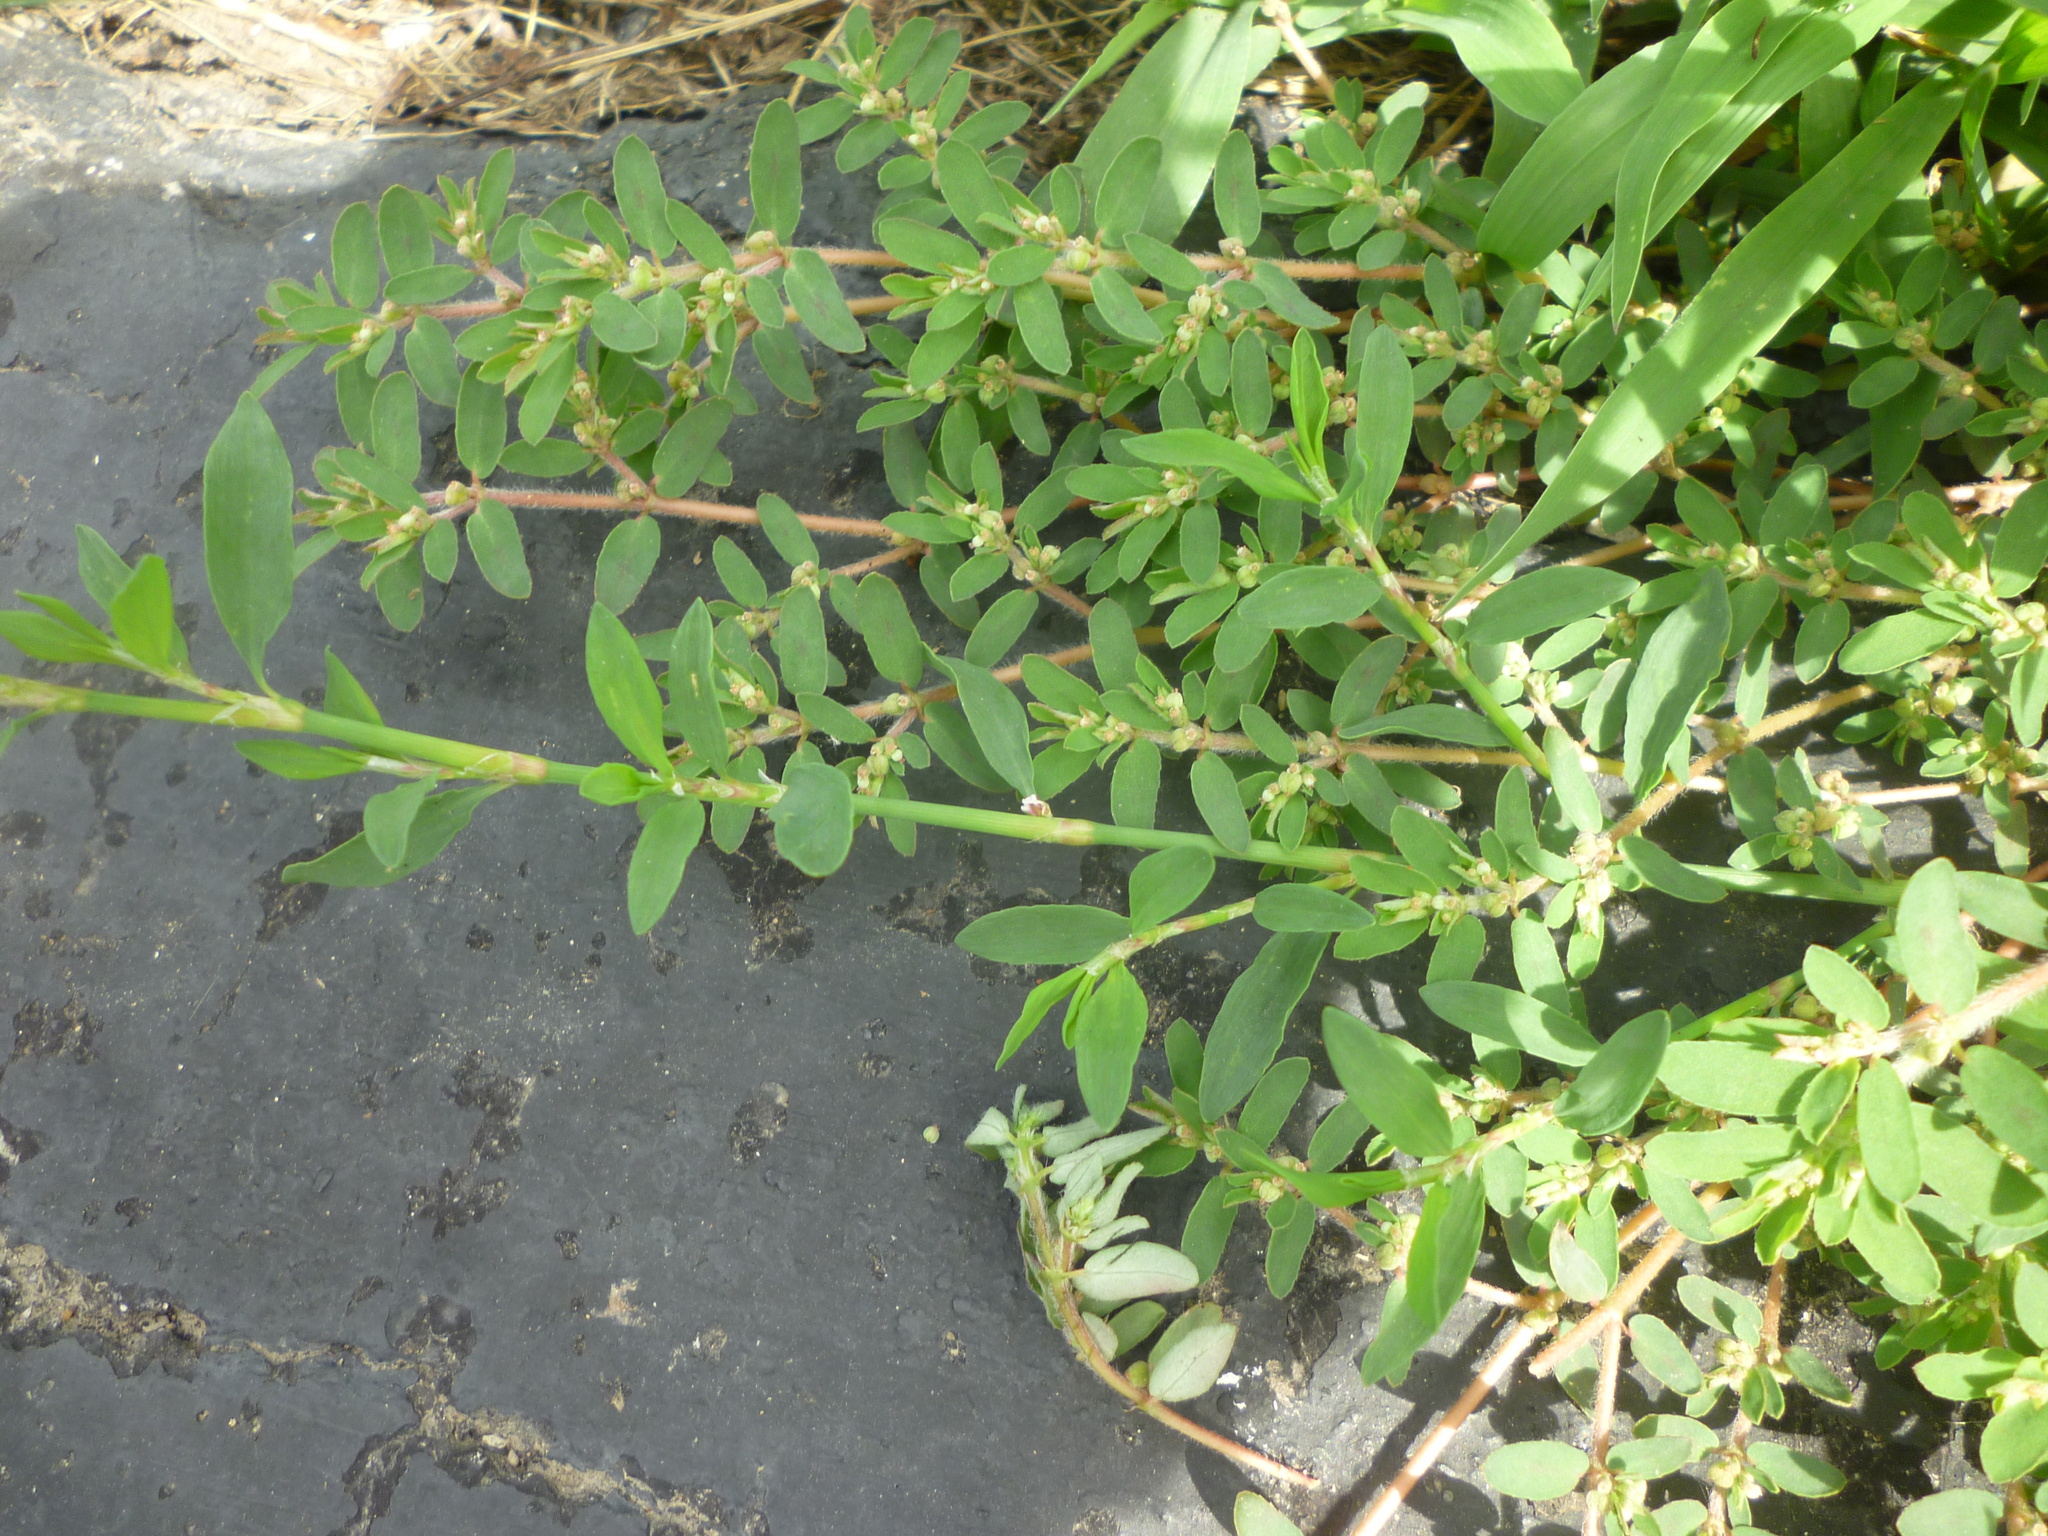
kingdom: Plantae
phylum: Tracheophyta
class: Magnoliopsida
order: Malpighiales
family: Euphorbiaceae
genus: Euphorbia
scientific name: Euphorbia maculata
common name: Spotted spurge
